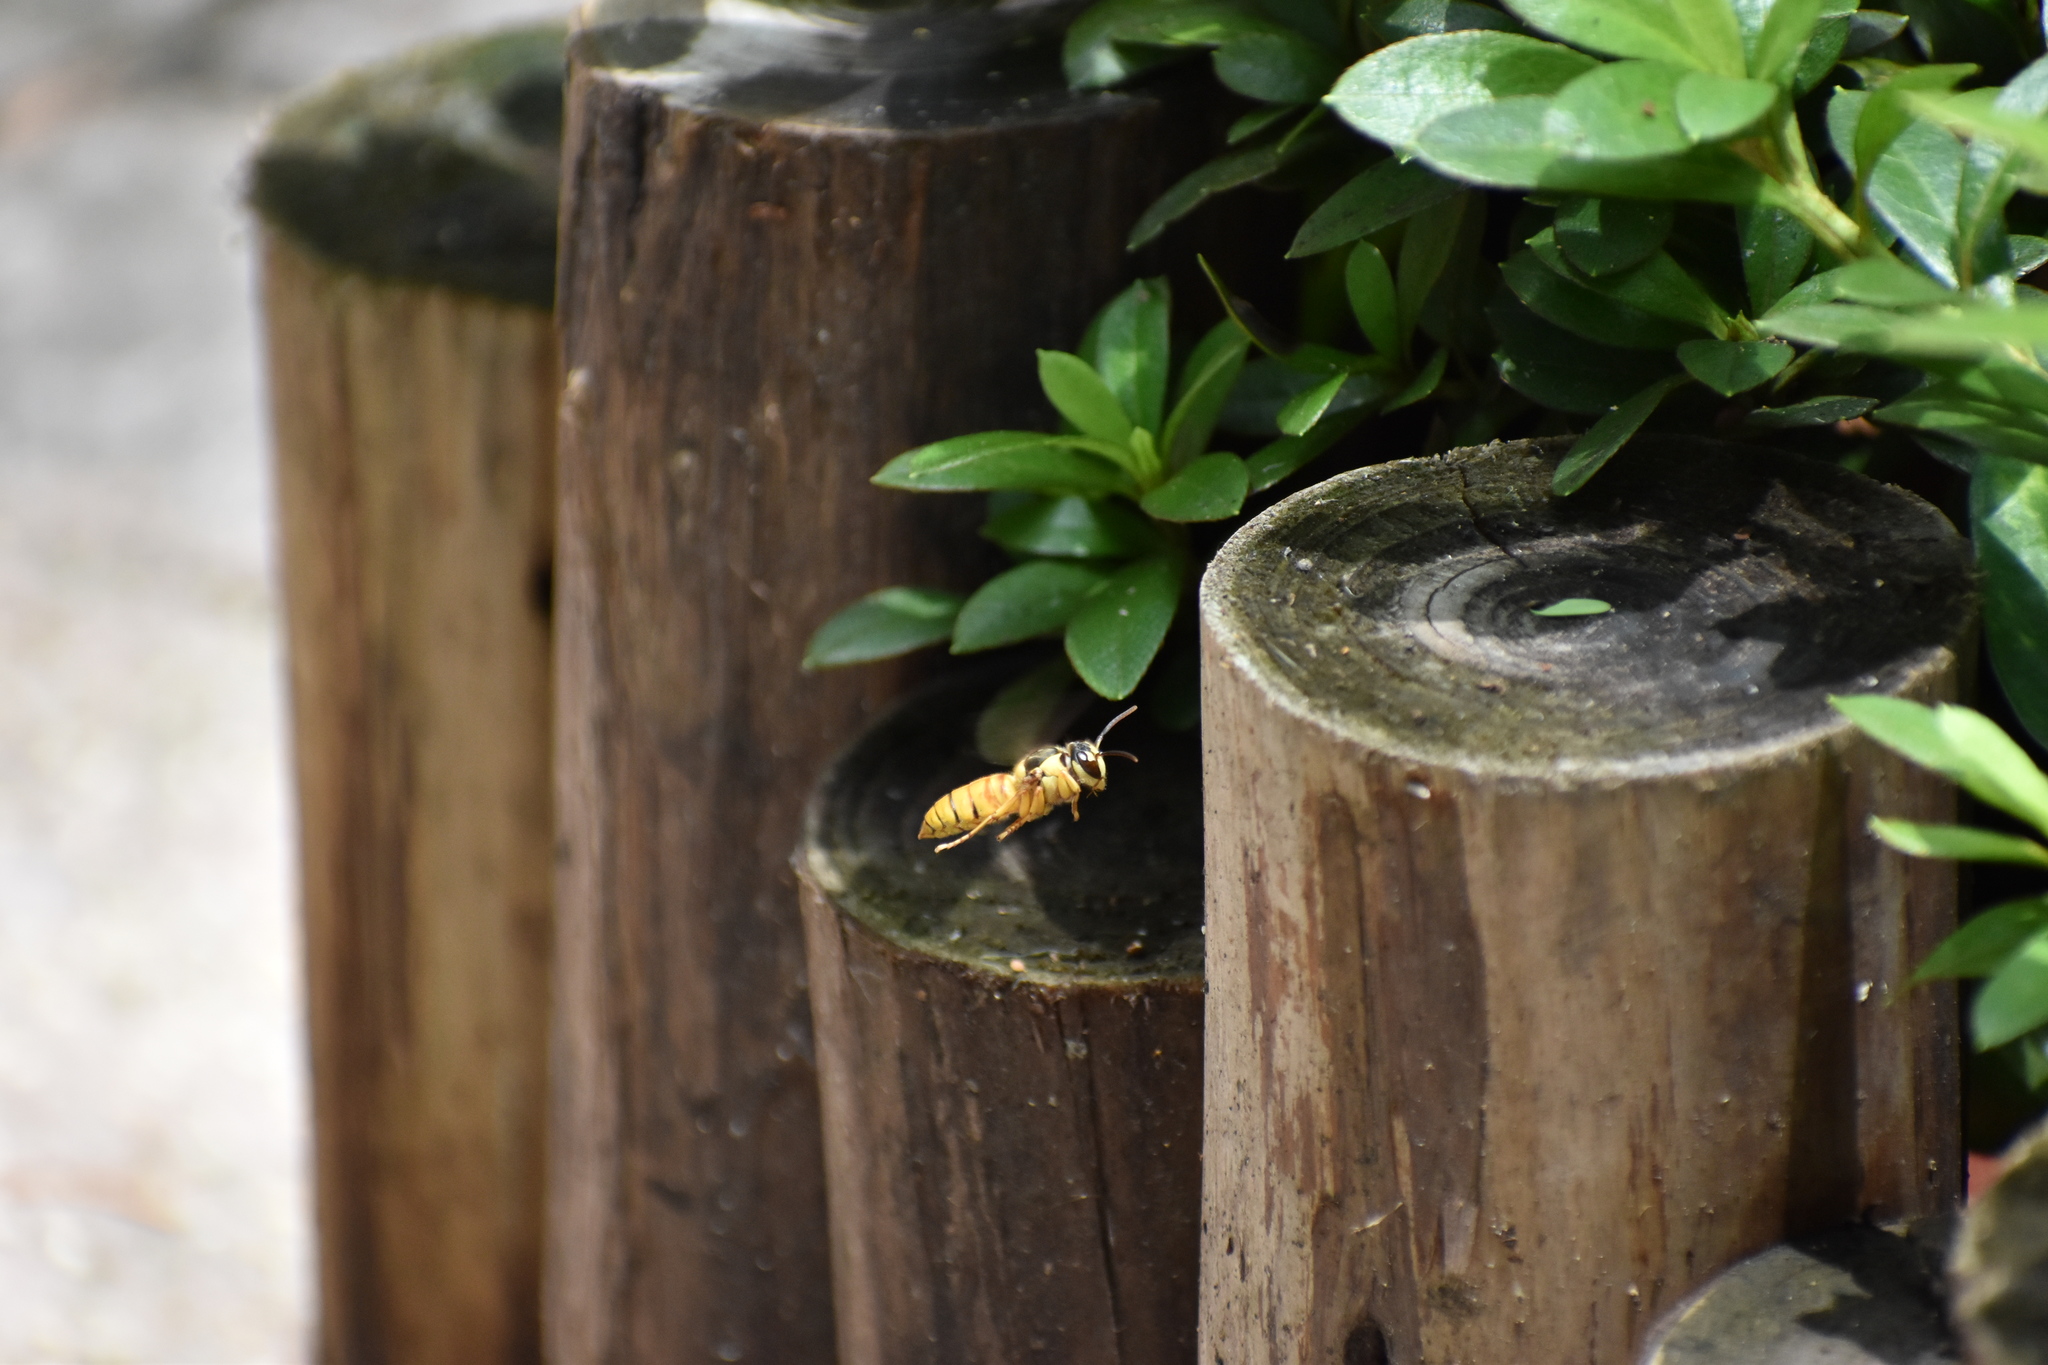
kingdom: Animalia
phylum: Arthropoda
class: Insecta
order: Hymenoptera
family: Vespidae
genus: Vespa
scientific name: Vespa bicolor
